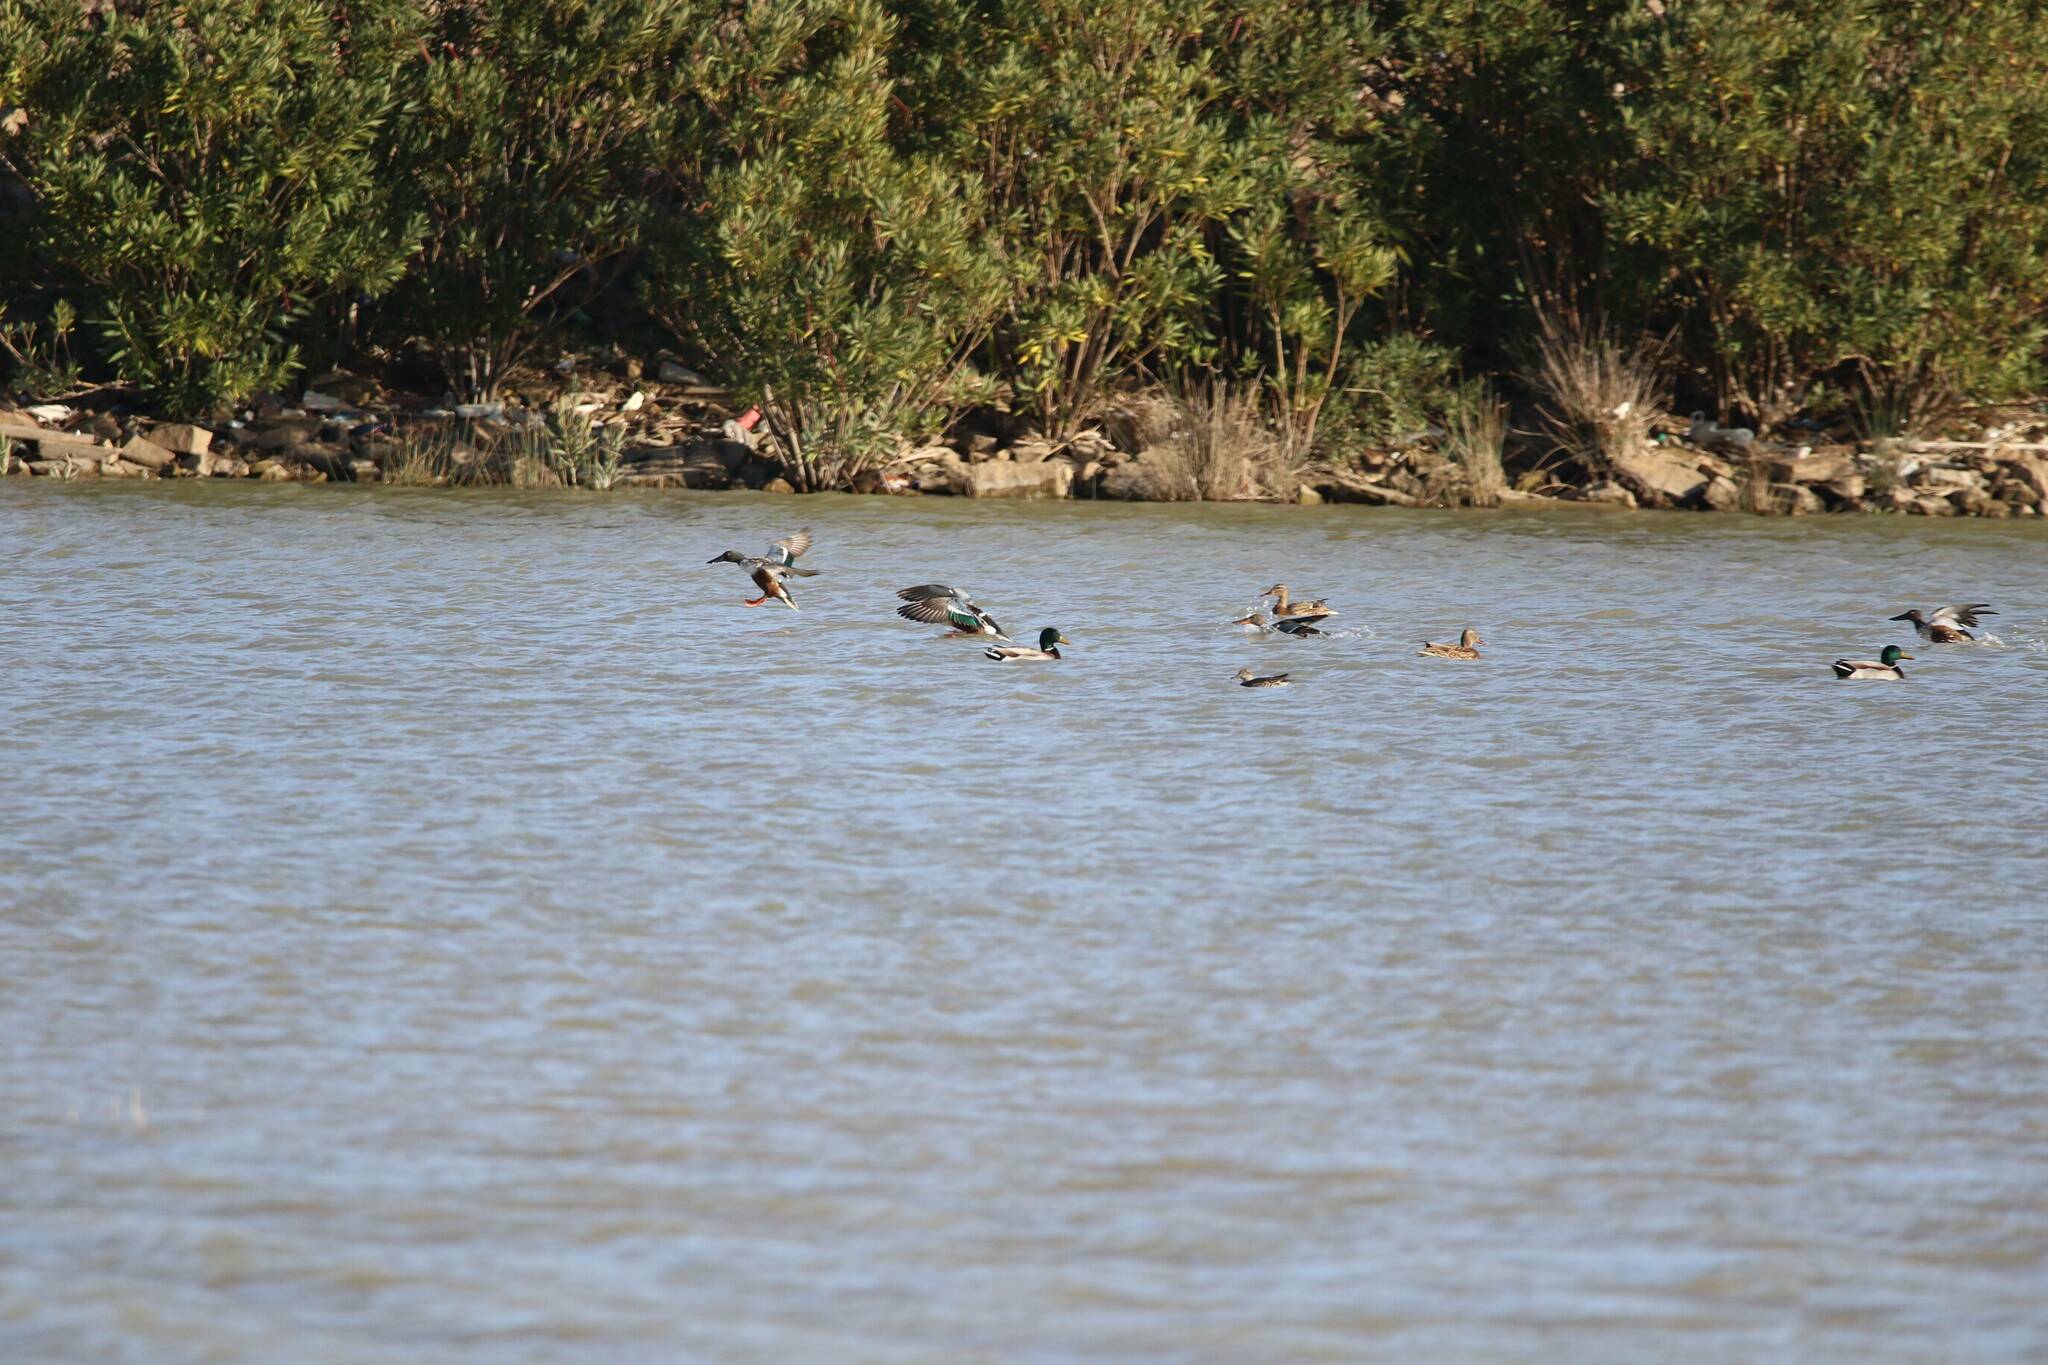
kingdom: Animalia
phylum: Chordata
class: Aves
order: Anseriformes
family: Anatidae
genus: Spatula
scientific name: Spatula clypeata
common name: Northern shoveler
